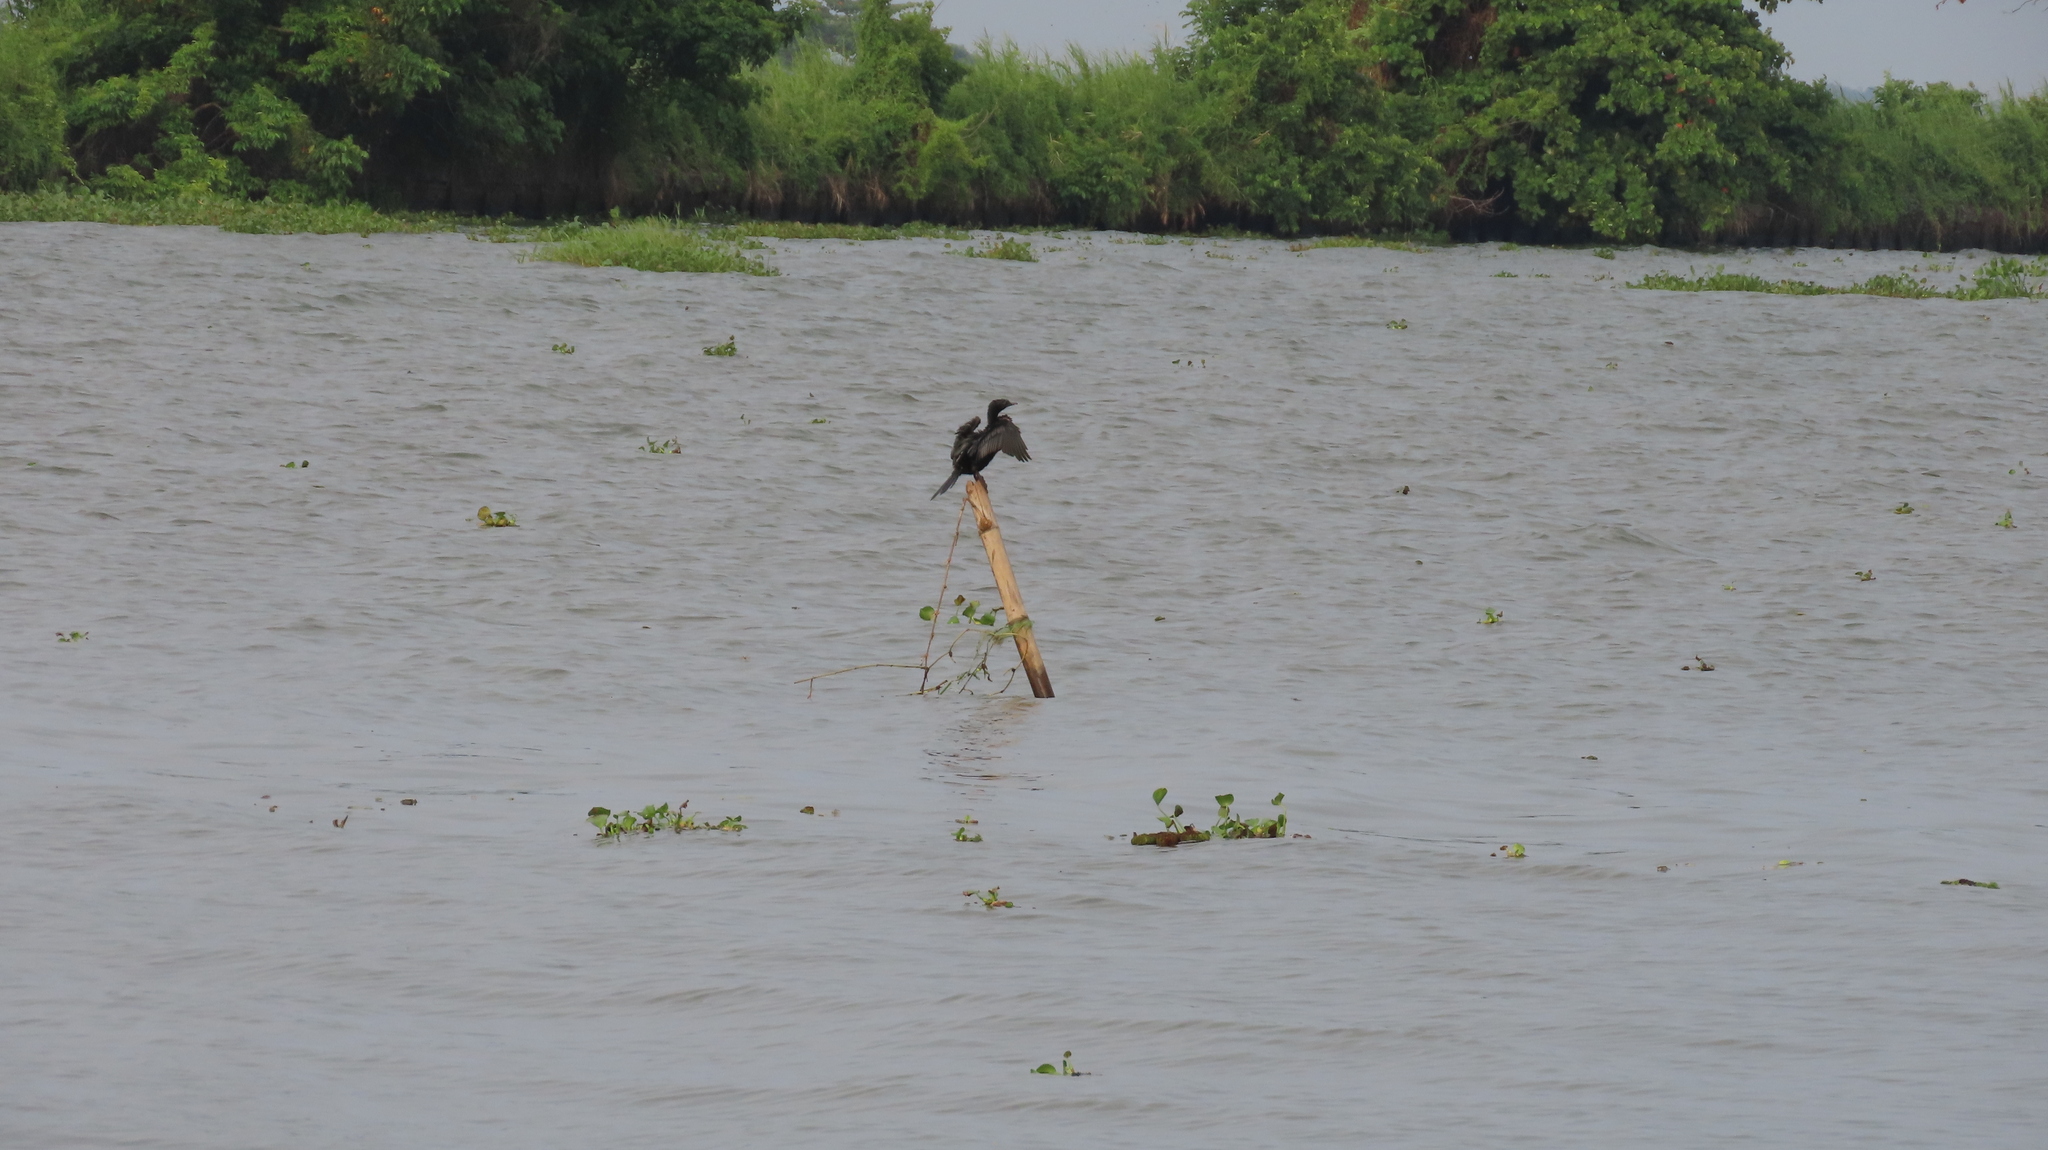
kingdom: Animalia
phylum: Chordata
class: Aves
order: Suliformes
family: Phalacrocoracidae
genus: Microcarbo
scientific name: Microcarbo niger
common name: Little cormorant
